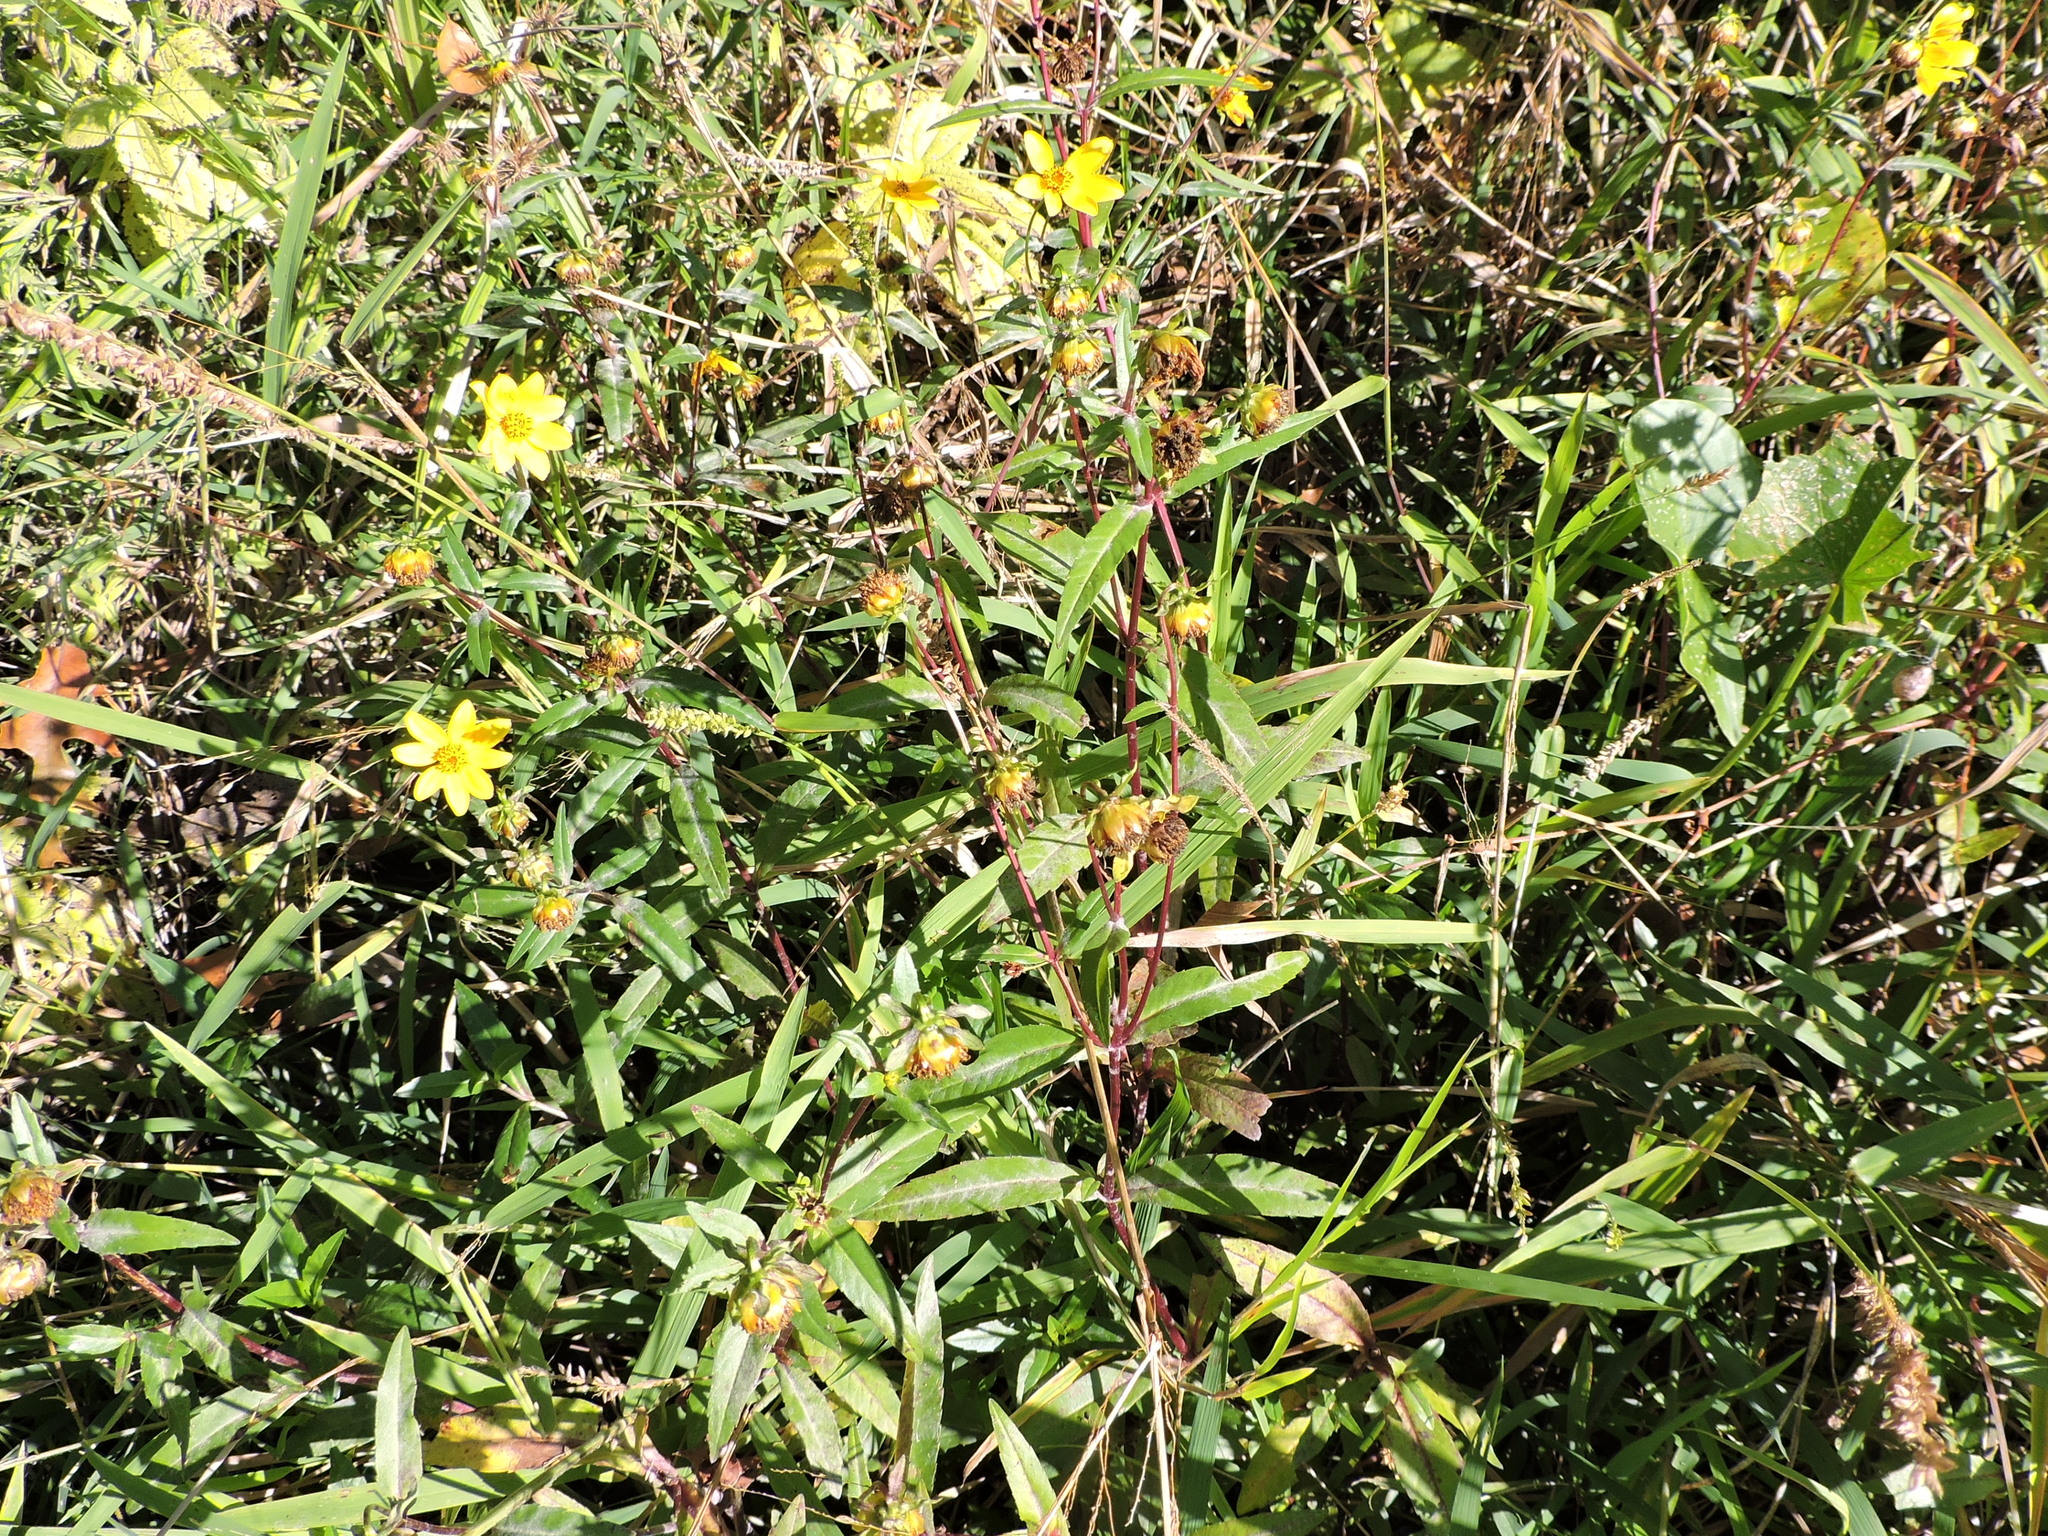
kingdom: Plantae
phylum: Tracheophyta
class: Magnoliopsida
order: Asterales
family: Asteraceae
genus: Bidens
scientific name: Bidens laevis
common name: Larger bur-marigold
